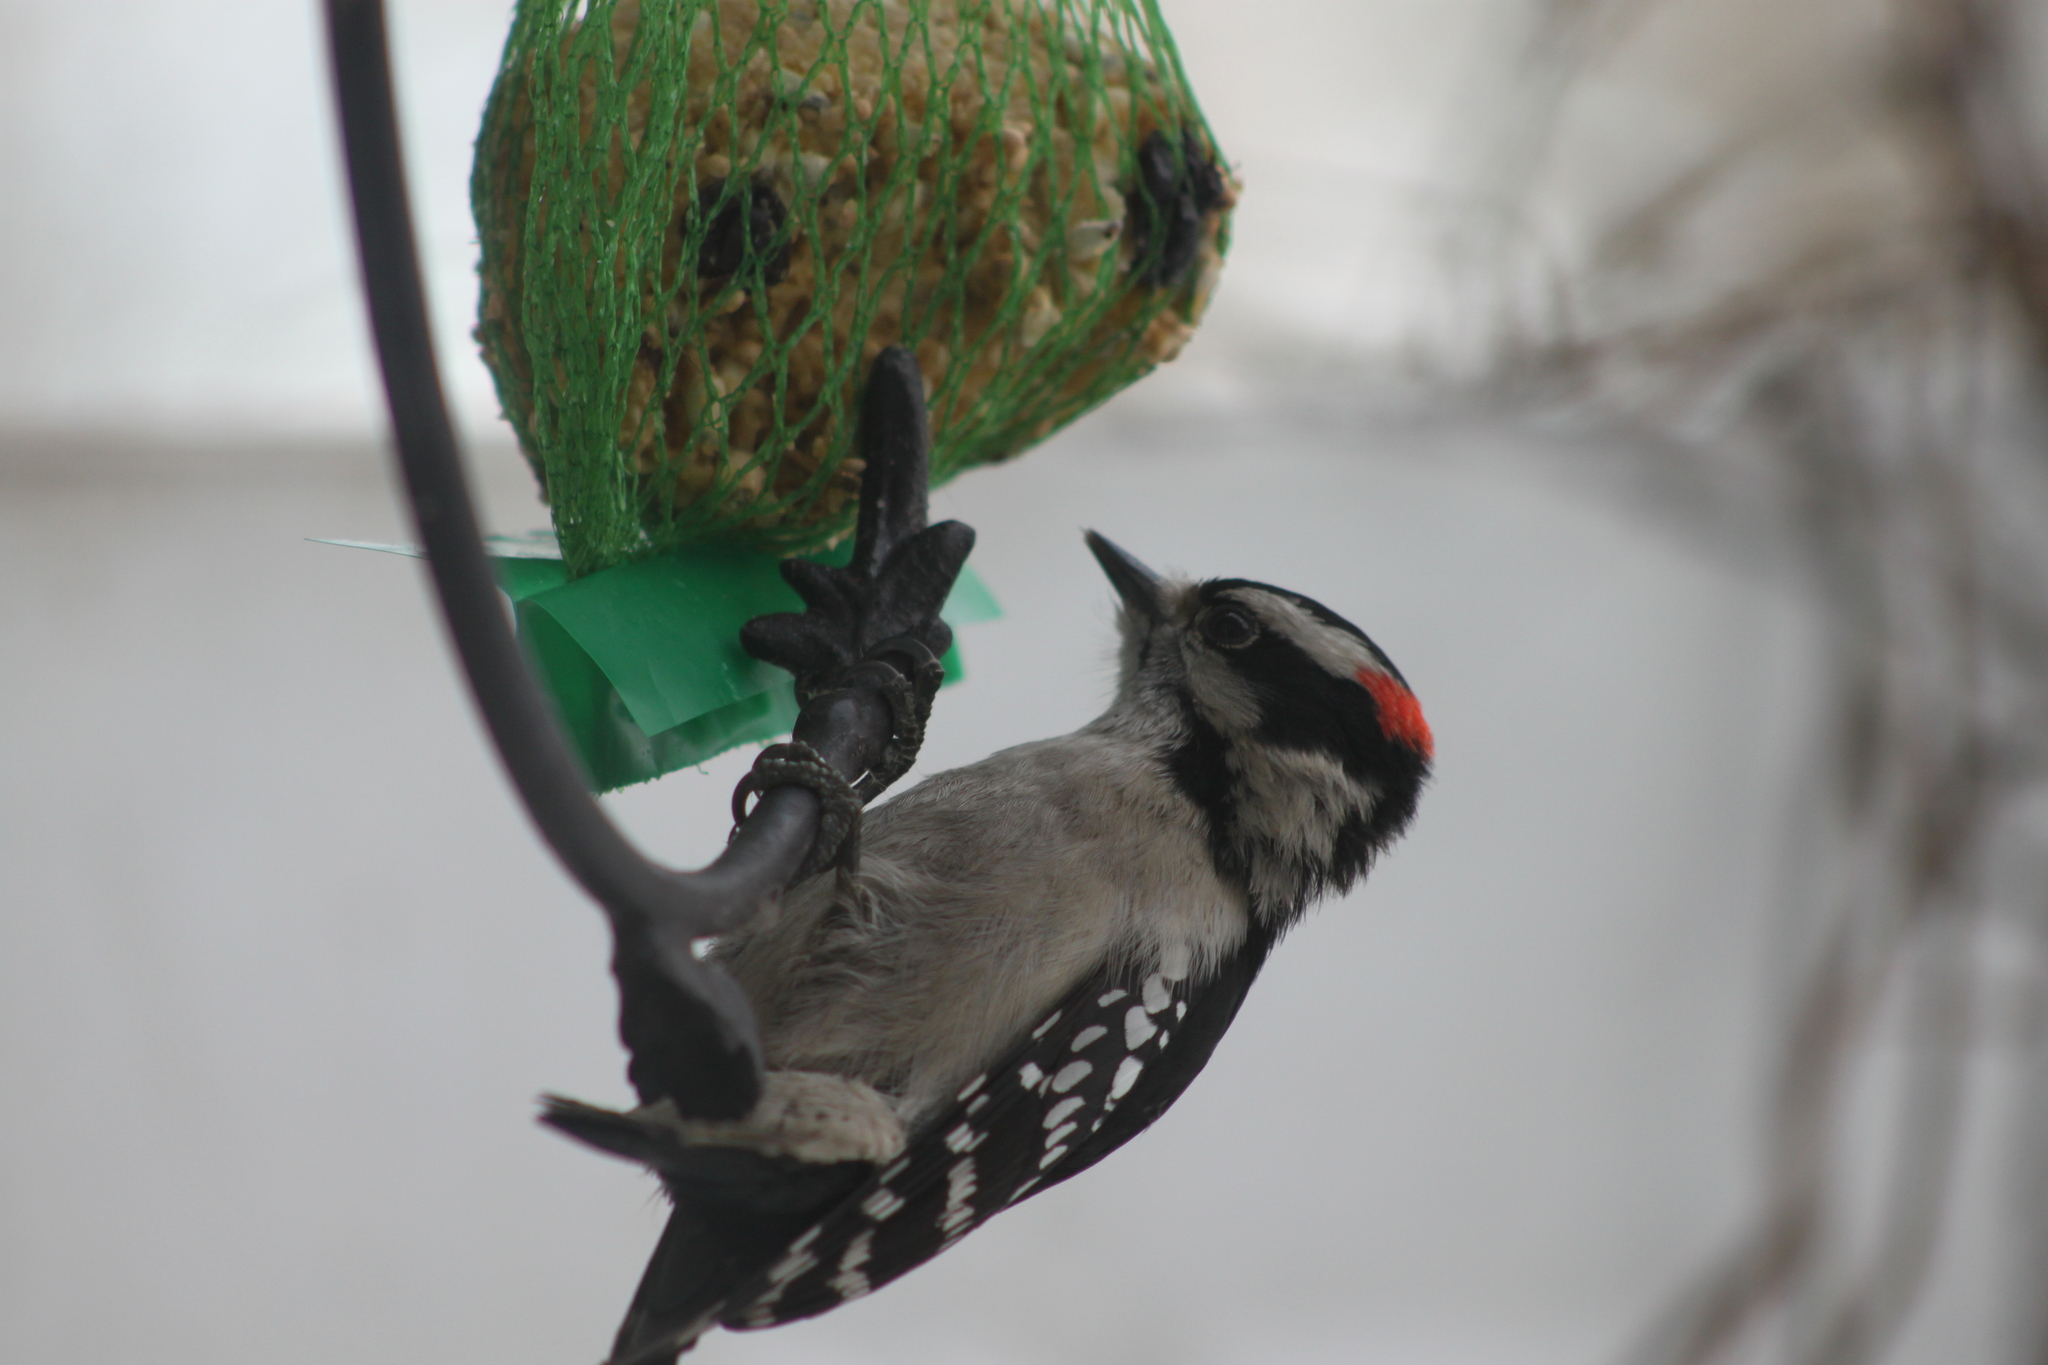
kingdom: Animalia
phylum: Chordata
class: Aves
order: Piciformes
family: Picidae
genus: Dryobates
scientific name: Dryobates pubescens
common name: Downy woodpecker
